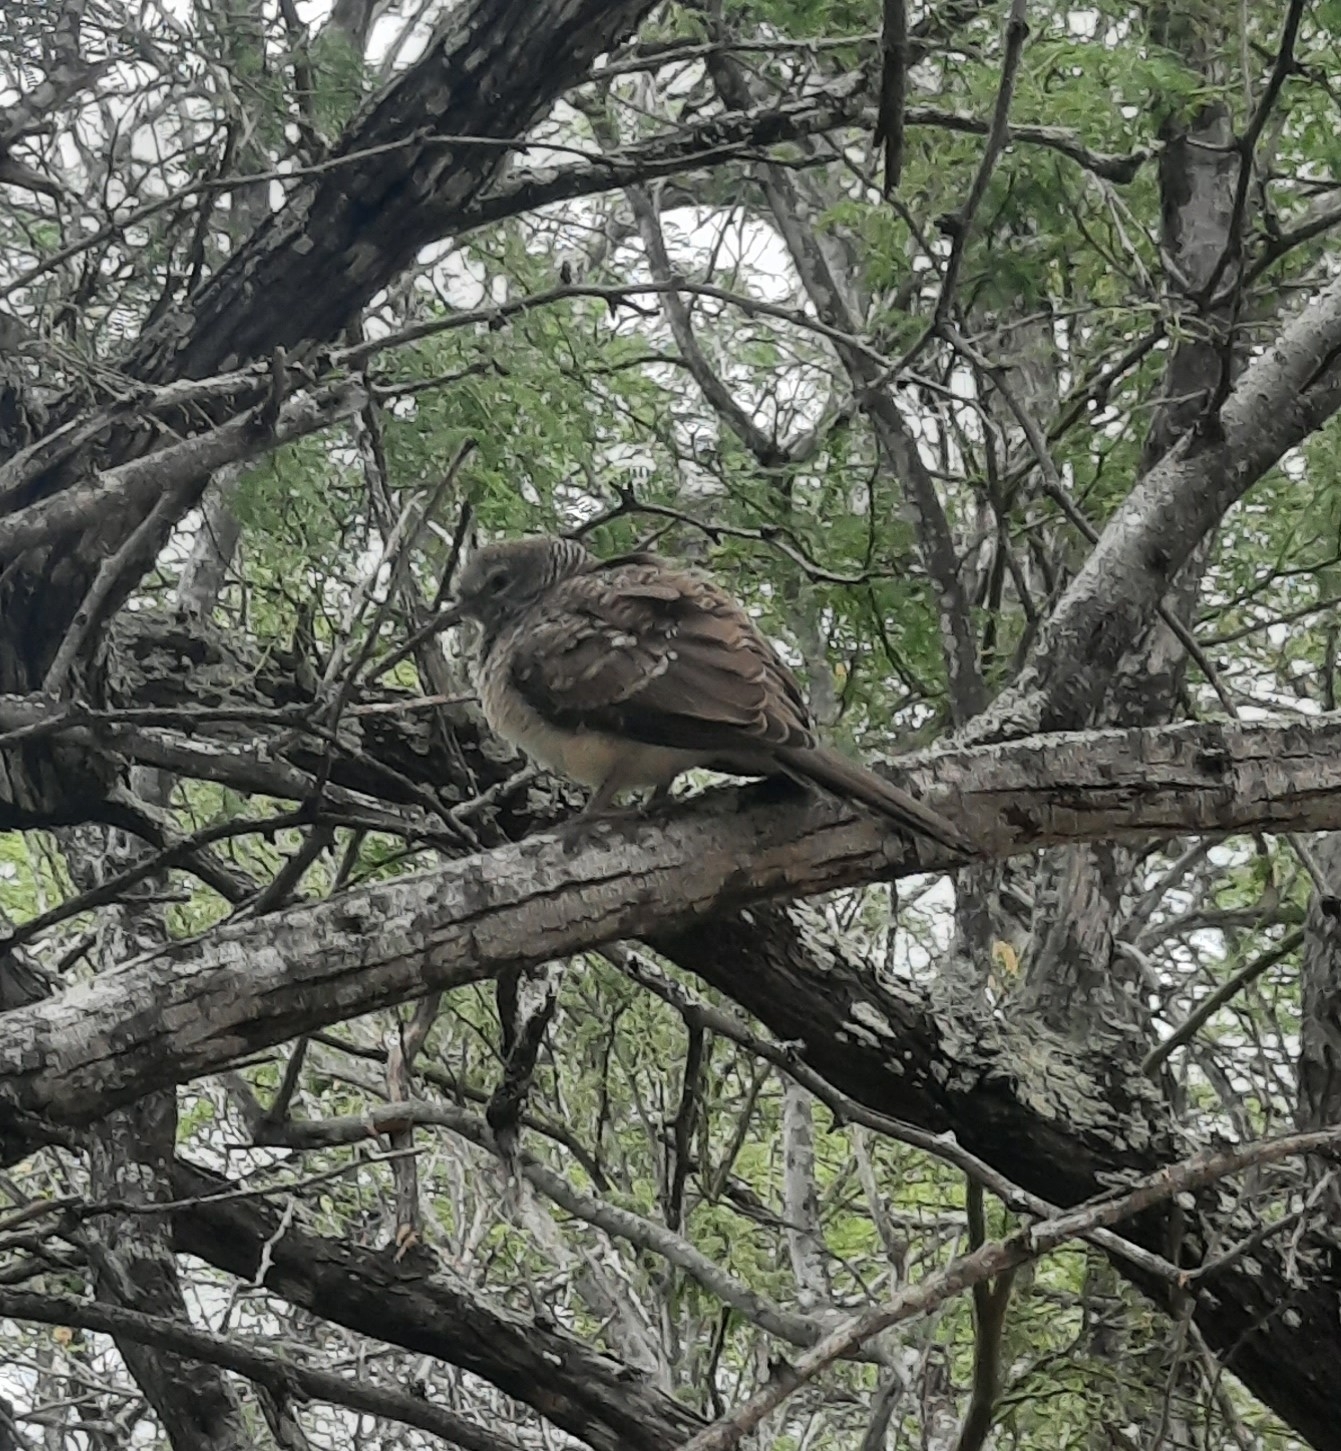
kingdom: Animalia
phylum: Chordata
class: Aves
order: Columbiformes
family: Columbidae
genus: Geopelia
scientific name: Geopelia striata
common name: Zebra dove
